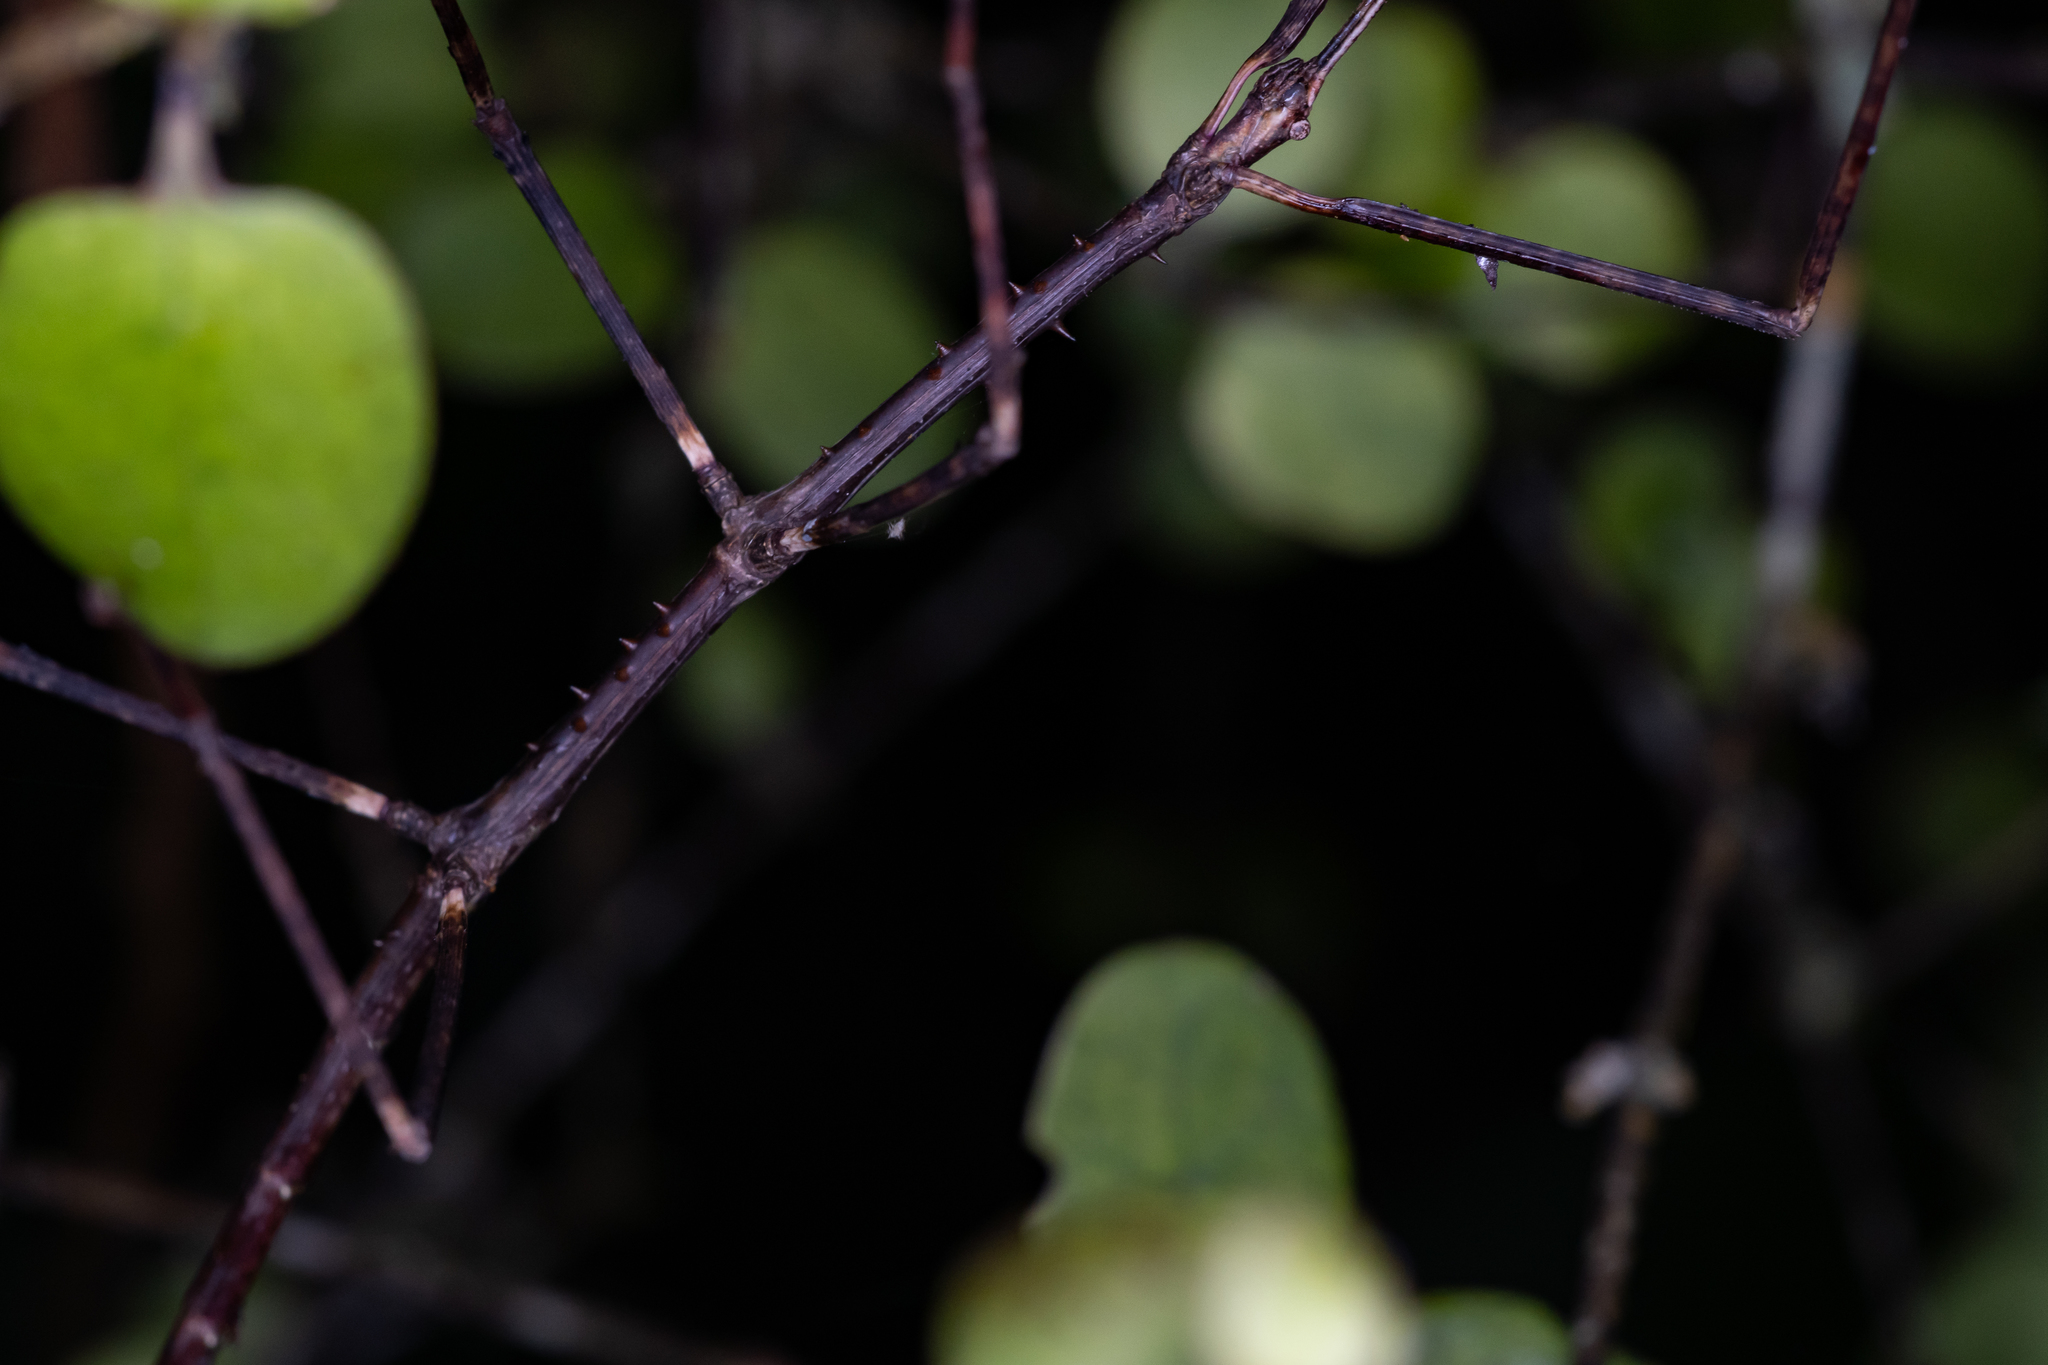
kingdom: Animalia
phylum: Arthropoda
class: Insecta
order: Phasmida
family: Phasmatidae
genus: Argosarchus
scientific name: Argosarchus horridus
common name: Bristly stick insect
